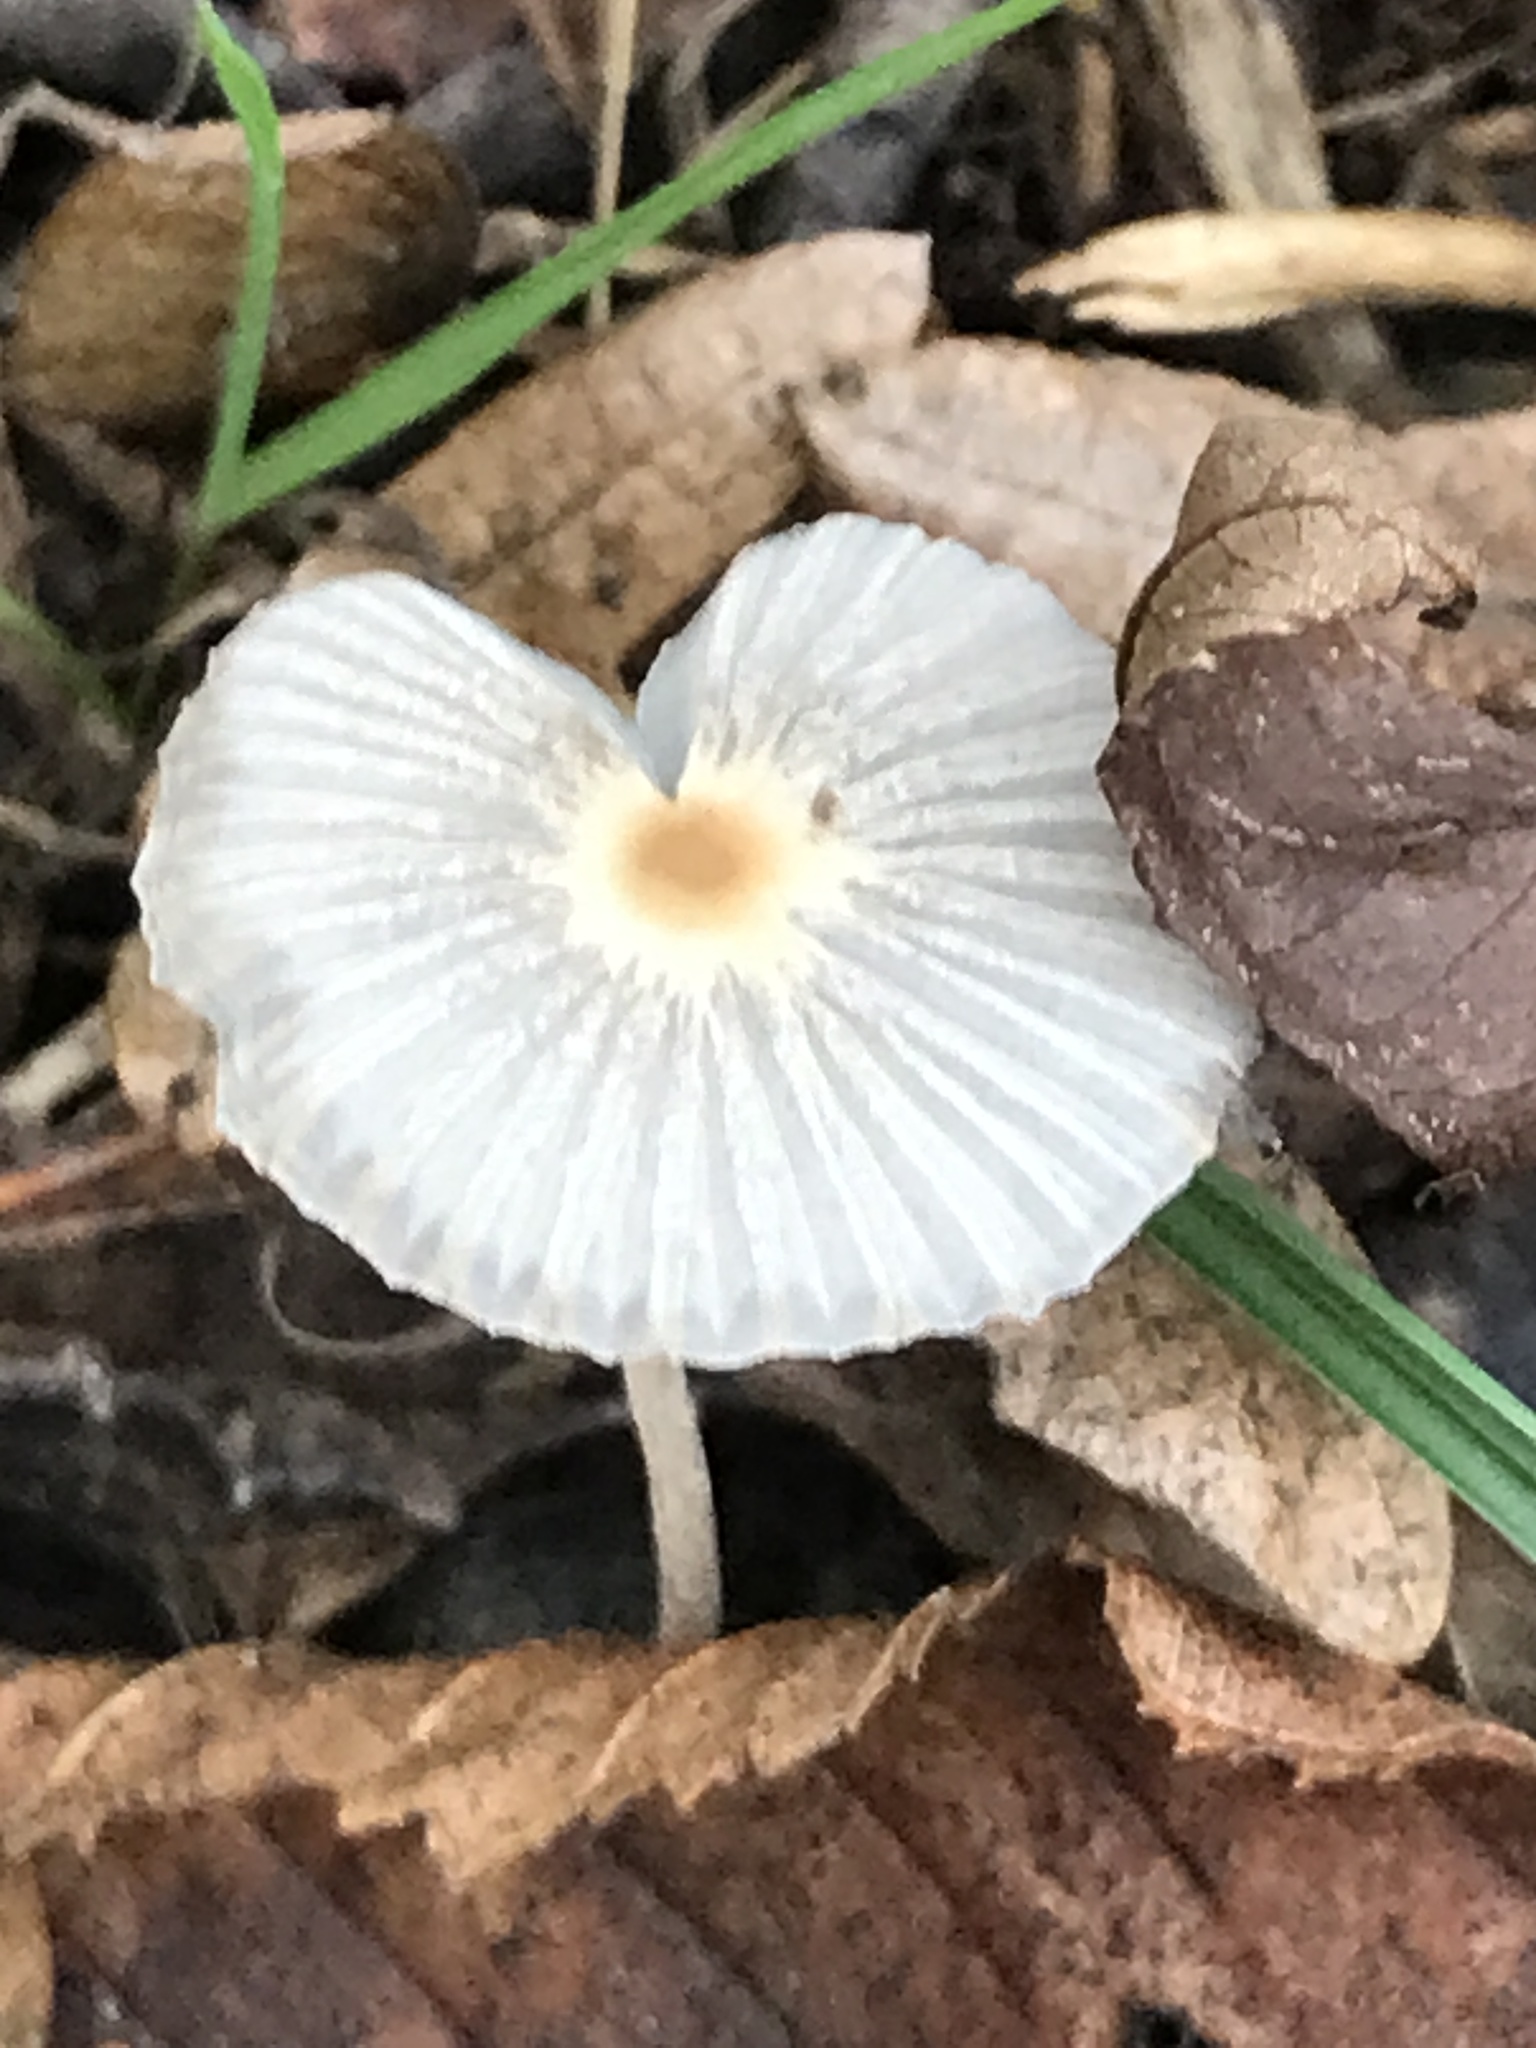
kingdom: Fungi
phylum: Basidiomycota
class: Agaricomycetes
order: Agaricales
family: Psathyrellaceae
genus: Parasola
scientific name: Parasola
